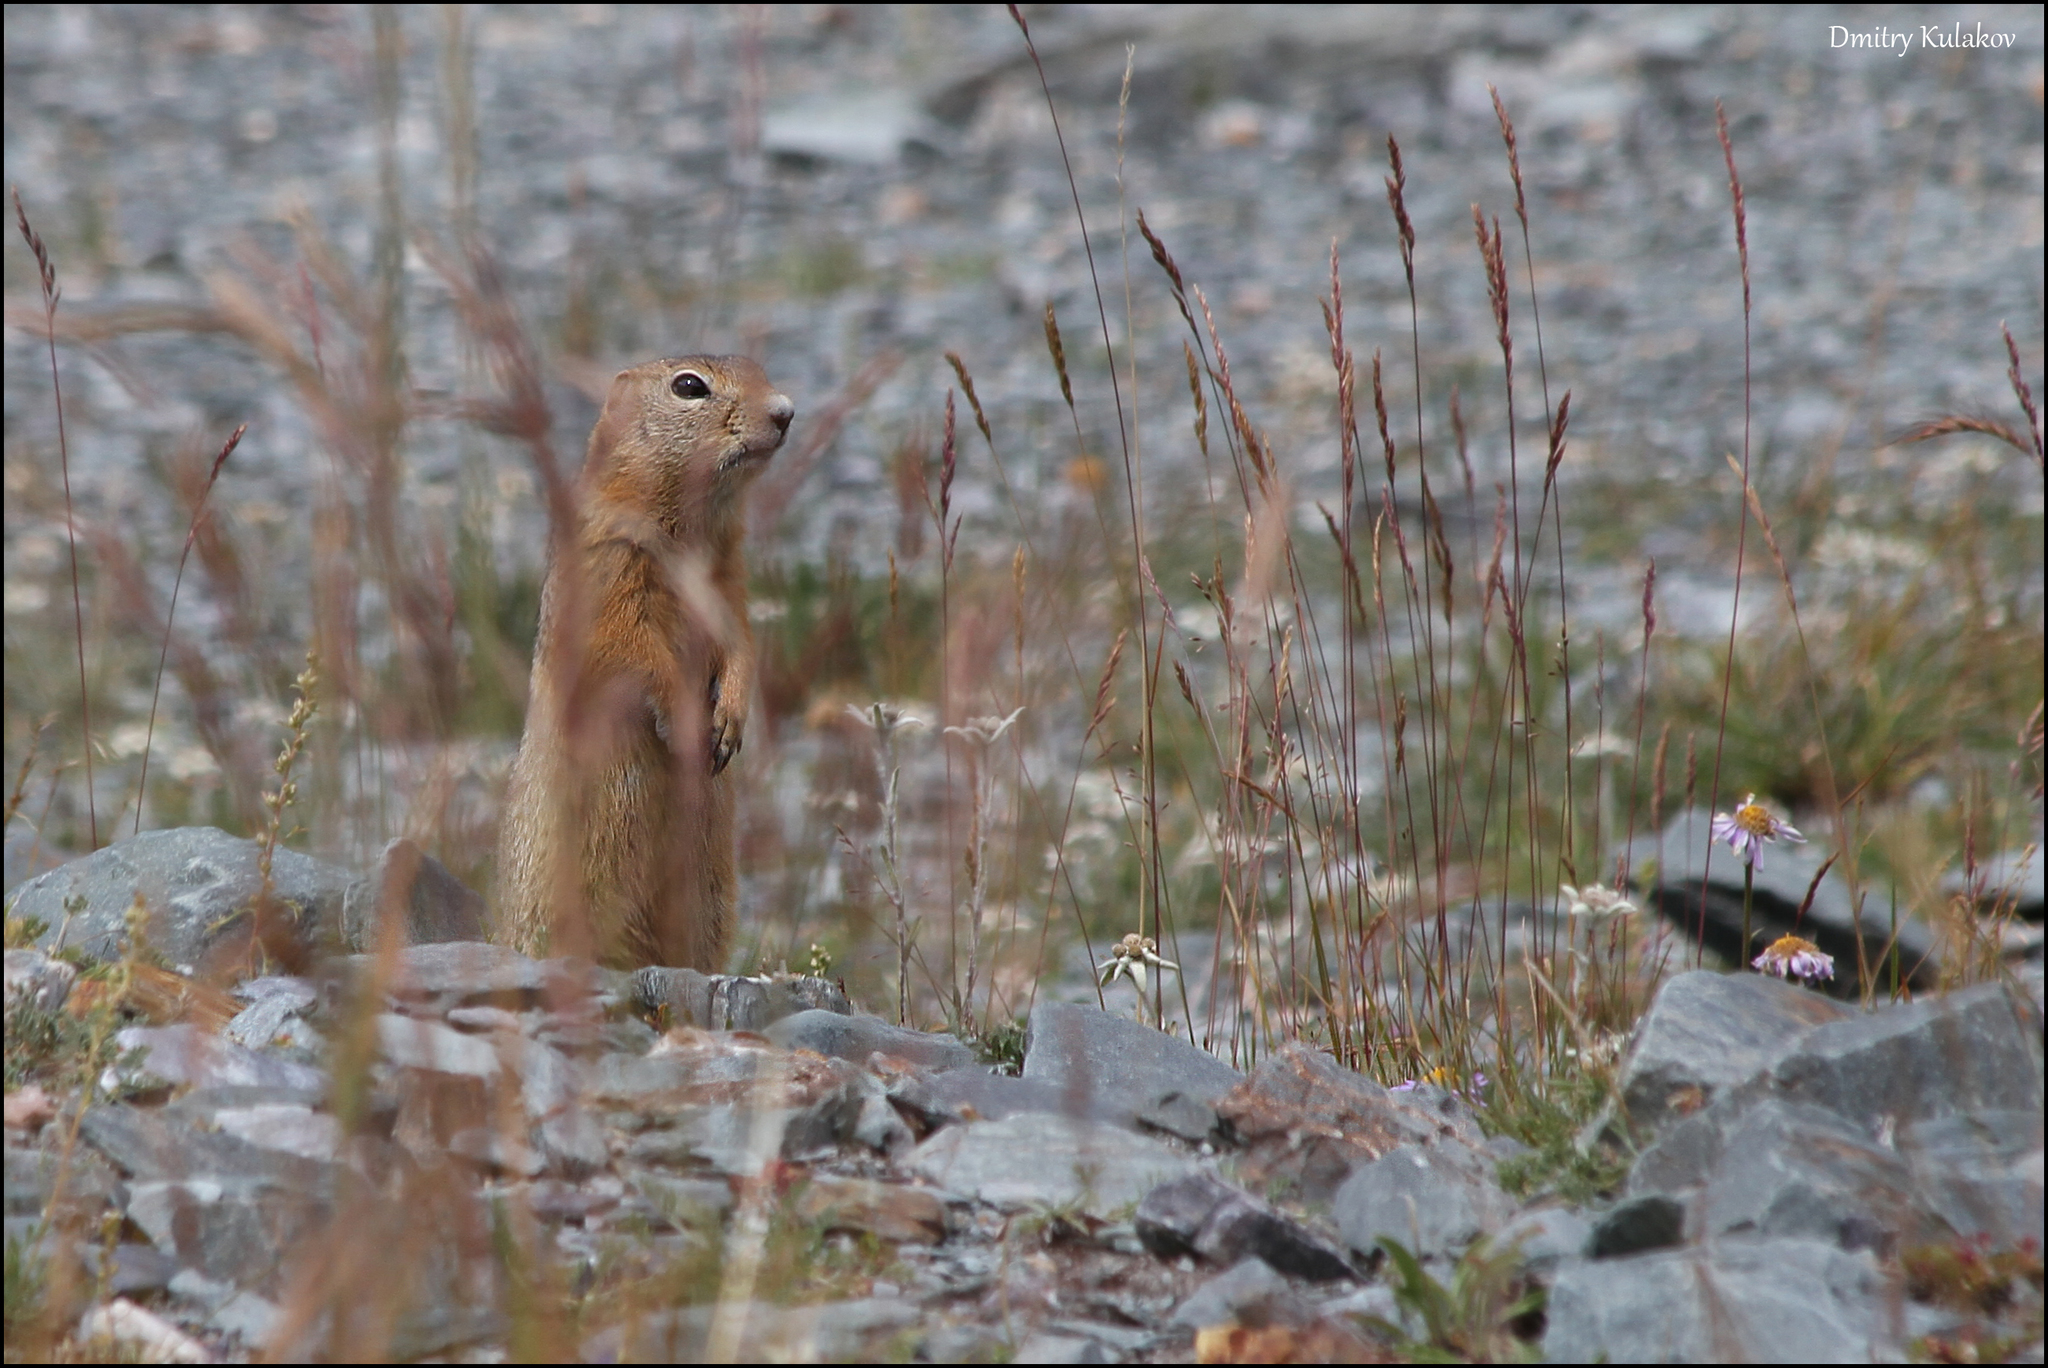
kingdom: Animalia
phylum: Chordata
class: Mammalia
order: Rodentia
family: Sciuridae
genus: Urocitellus
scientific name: Urocitellus undulatus
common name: Long-tailed ground squirrel
